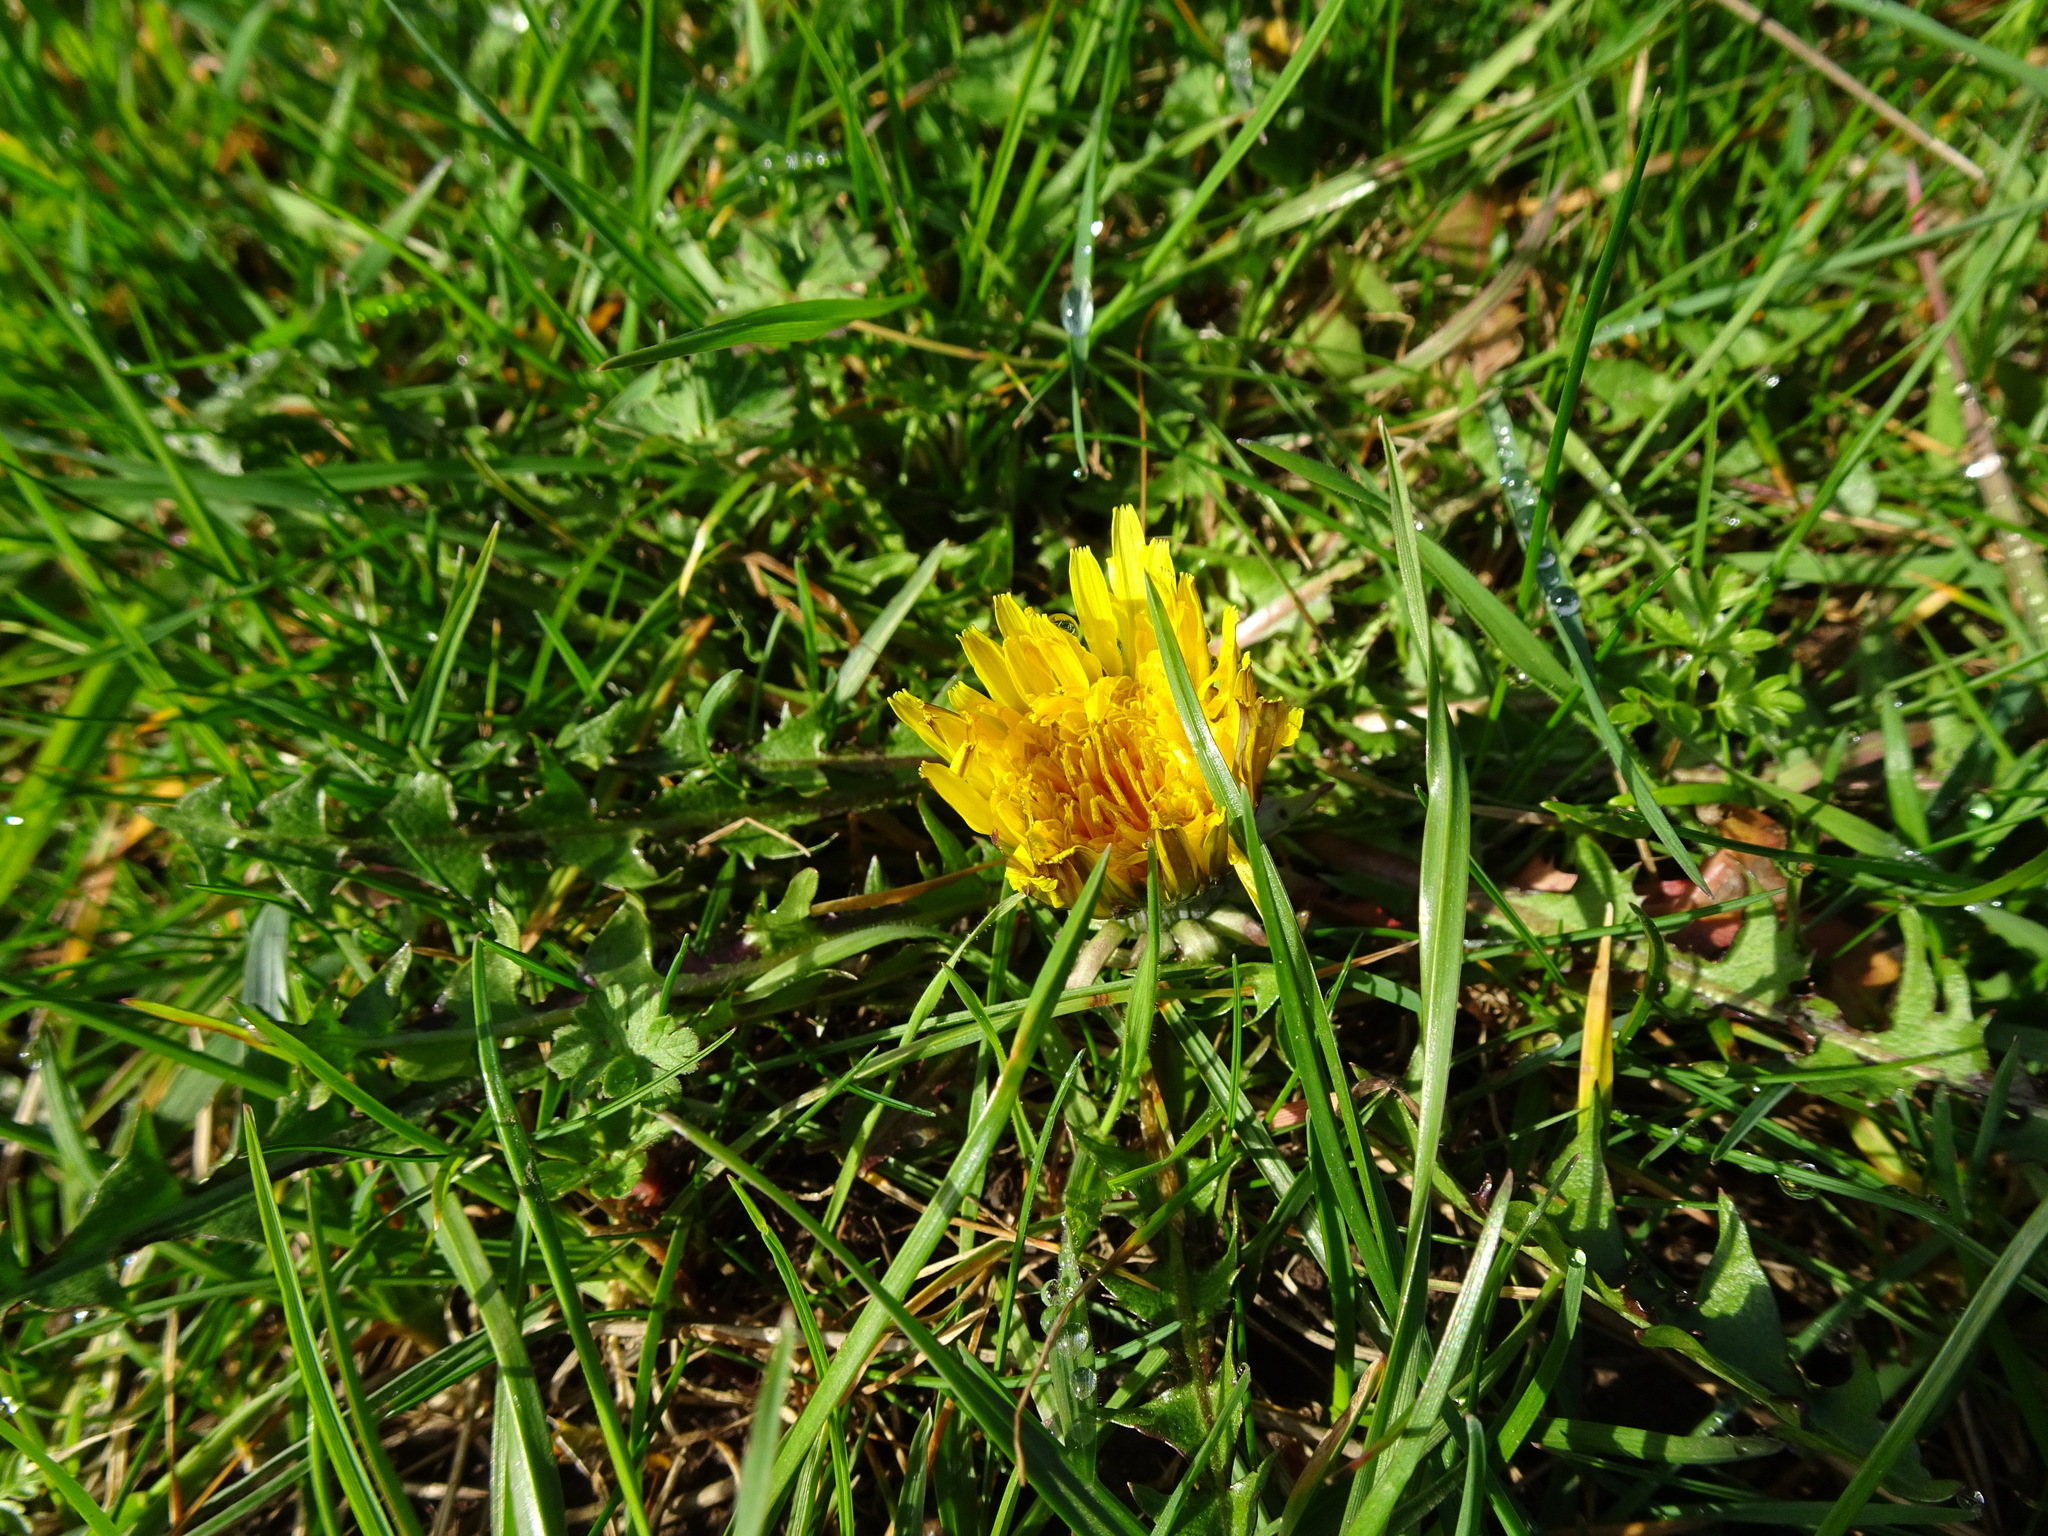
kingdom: Plantae
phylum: Tracheophyta
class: Magnoliopsida
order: Asterales
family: Asteraceae
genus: Taraxacum
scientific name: Taraxacum officinale
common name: Common dandelion
